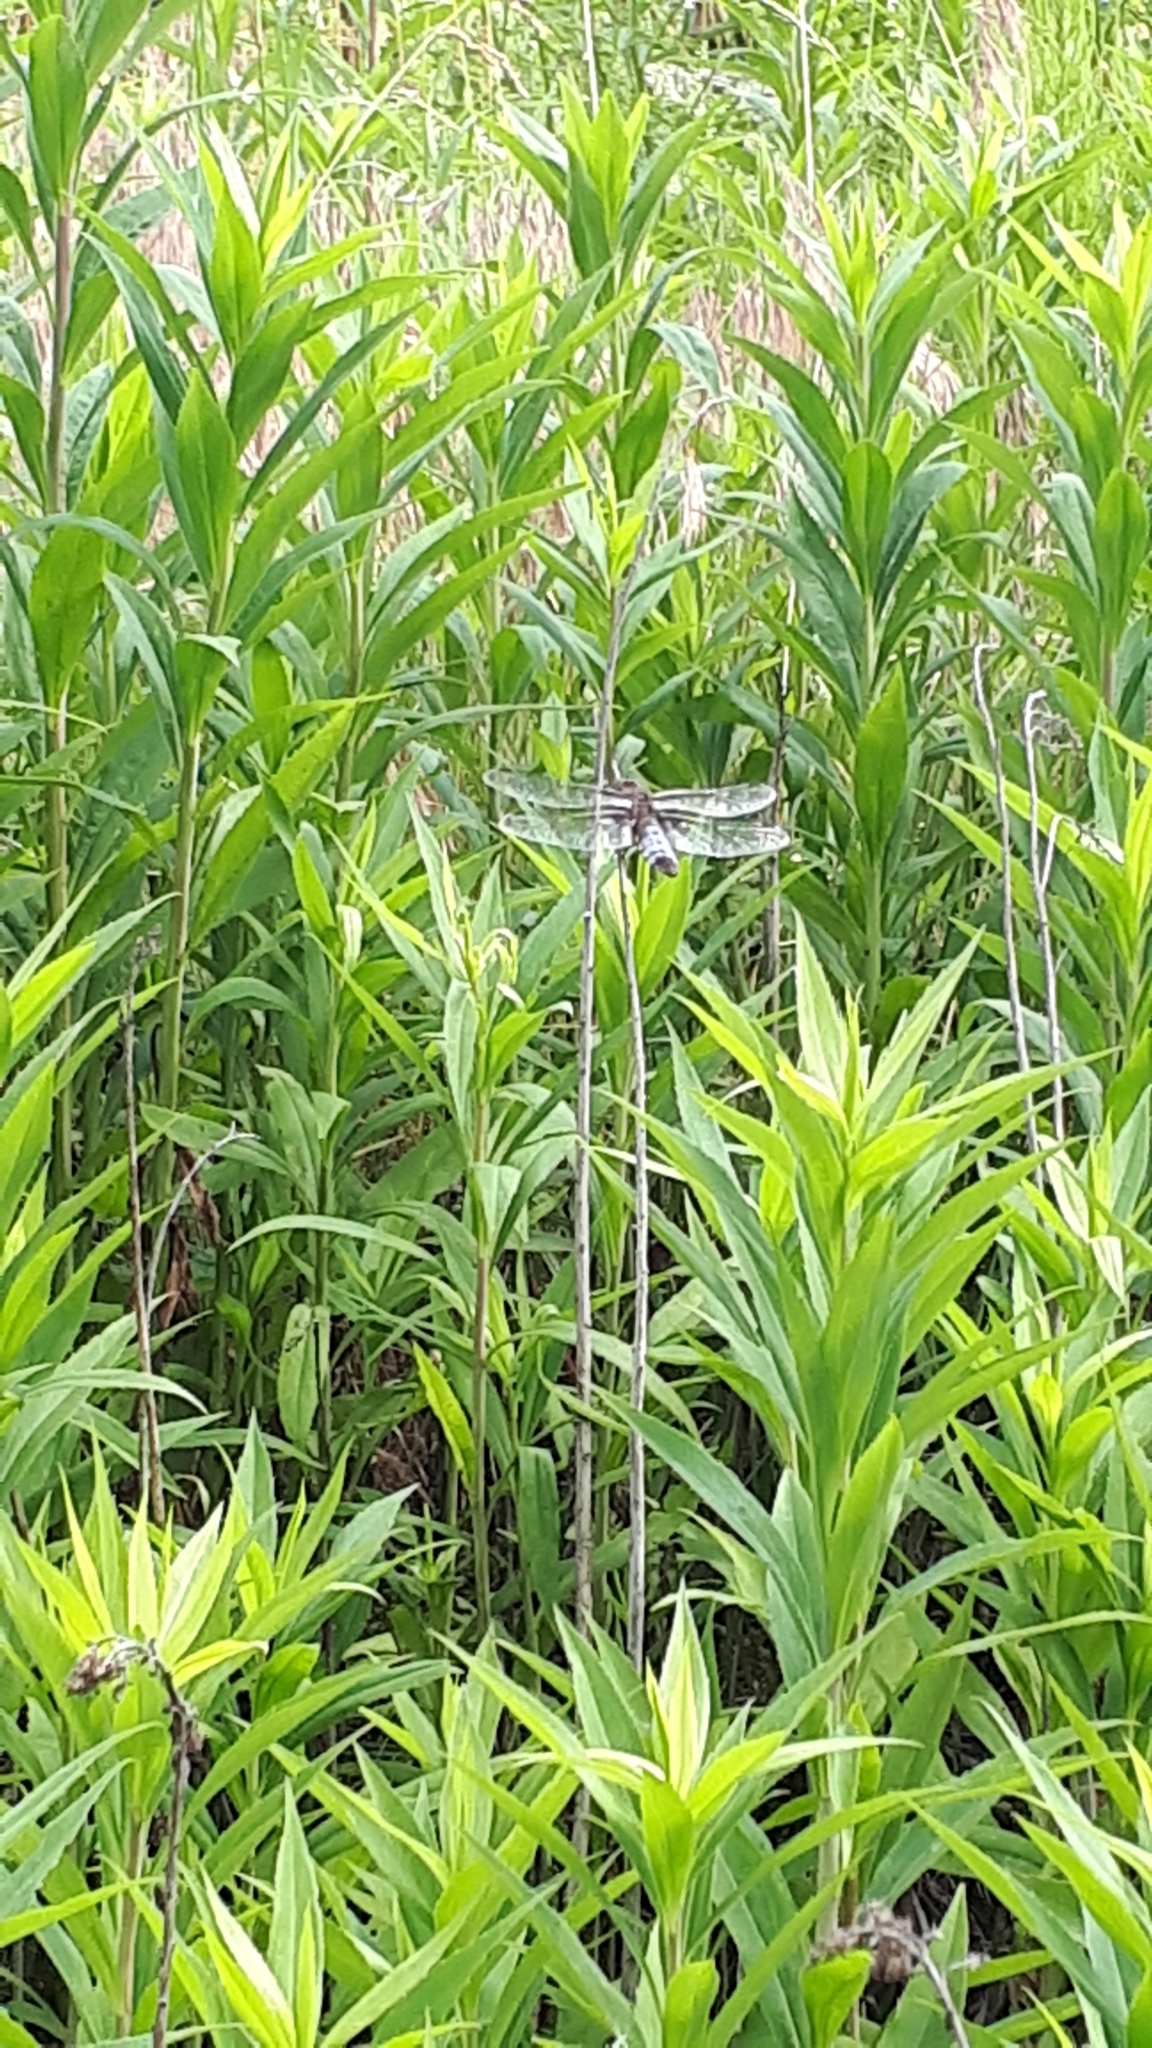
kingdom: Animalia
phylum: Arthropoda
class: Insecta
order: Odonata
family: Libellulidae
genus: Libellula
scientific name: Libellula depressa
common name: Broad-bodied chaser
